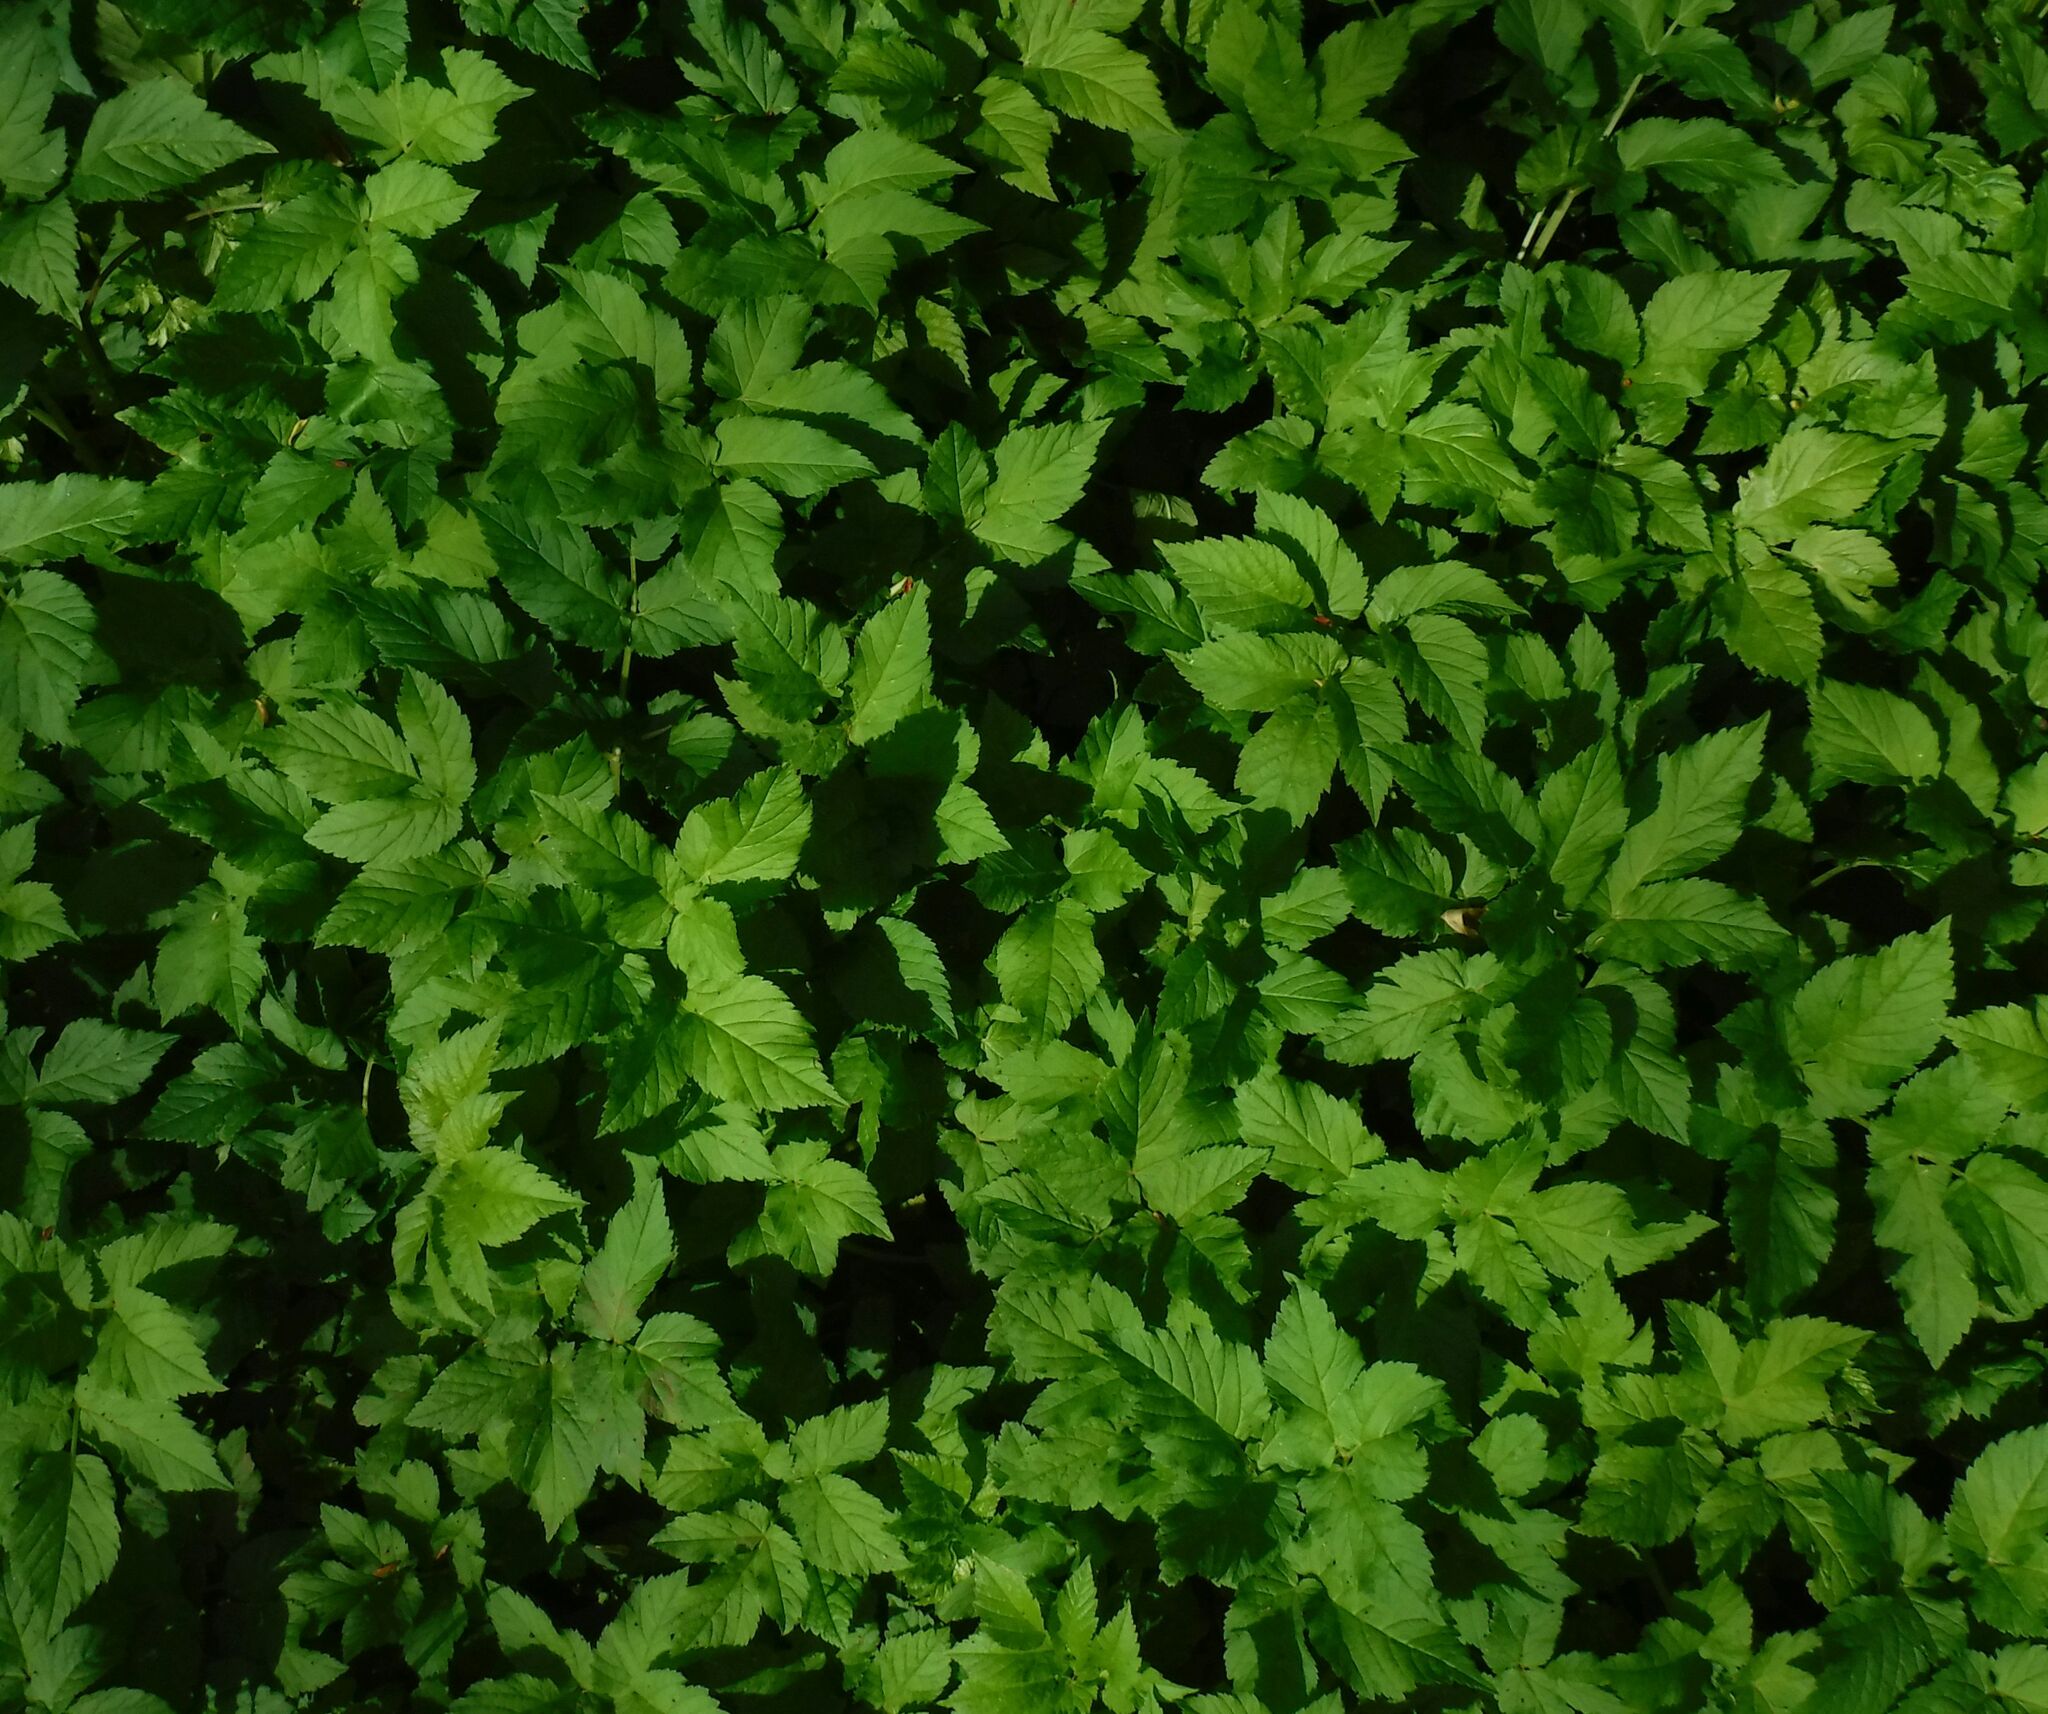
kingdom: Plantae
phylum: Tracheophyta
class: Magnoliopsida
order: Apiales
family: Apiaceae
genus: Aegopodium
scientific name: Aegopodium podagraria
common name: Ground-elder
